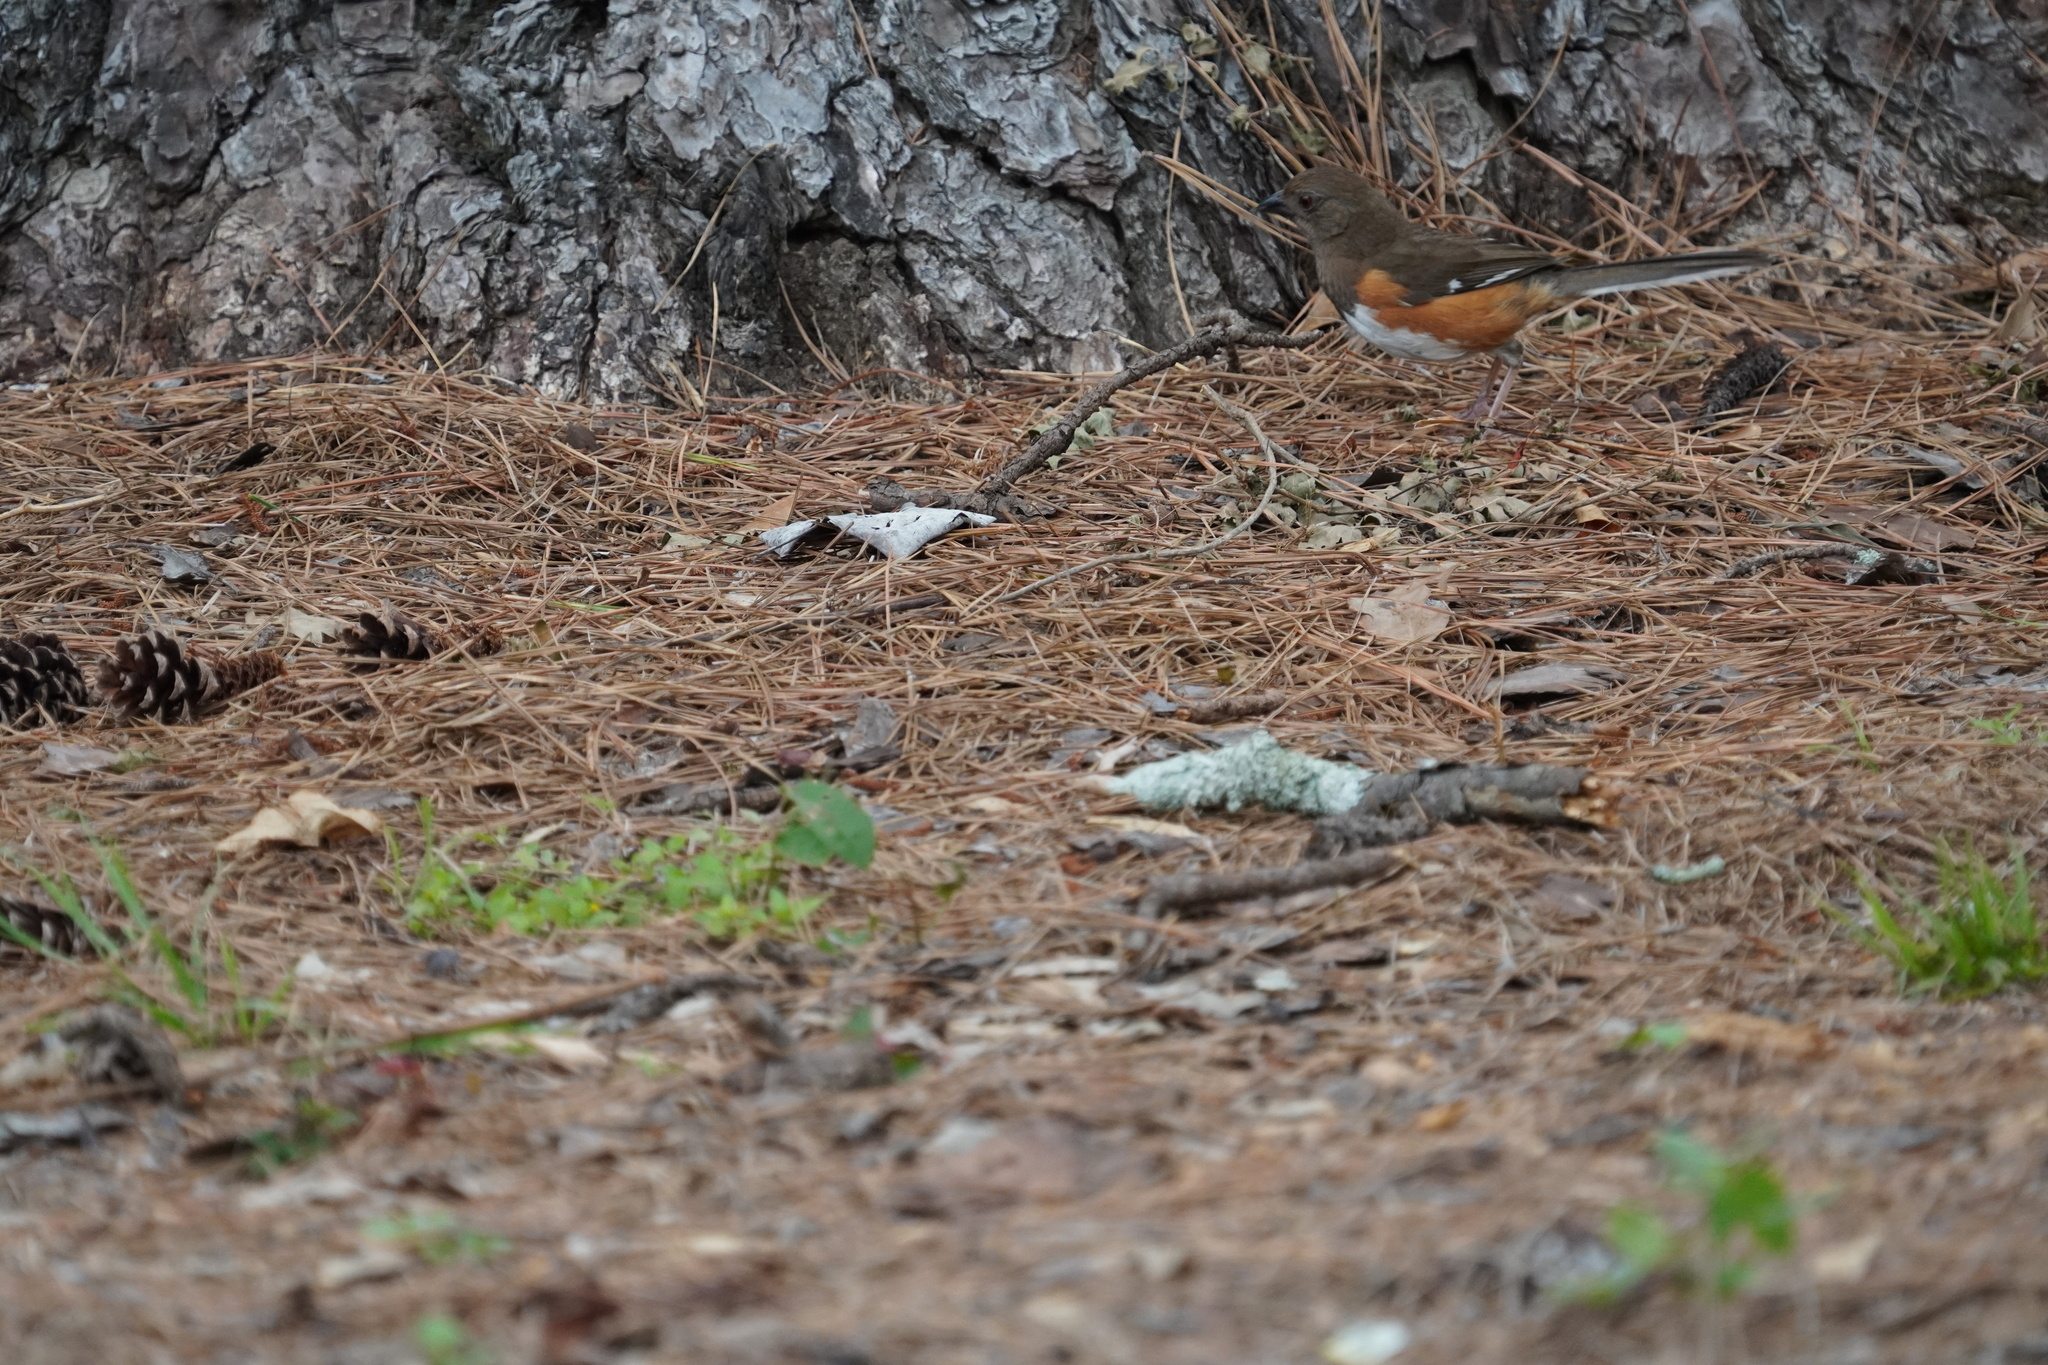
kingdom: Animalia
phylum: Chordata
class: Aves
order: Passeriformes
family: Passerellidae
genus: Pipilo
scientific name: Pipilo erythrophthalmus
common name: Eastern towhee
